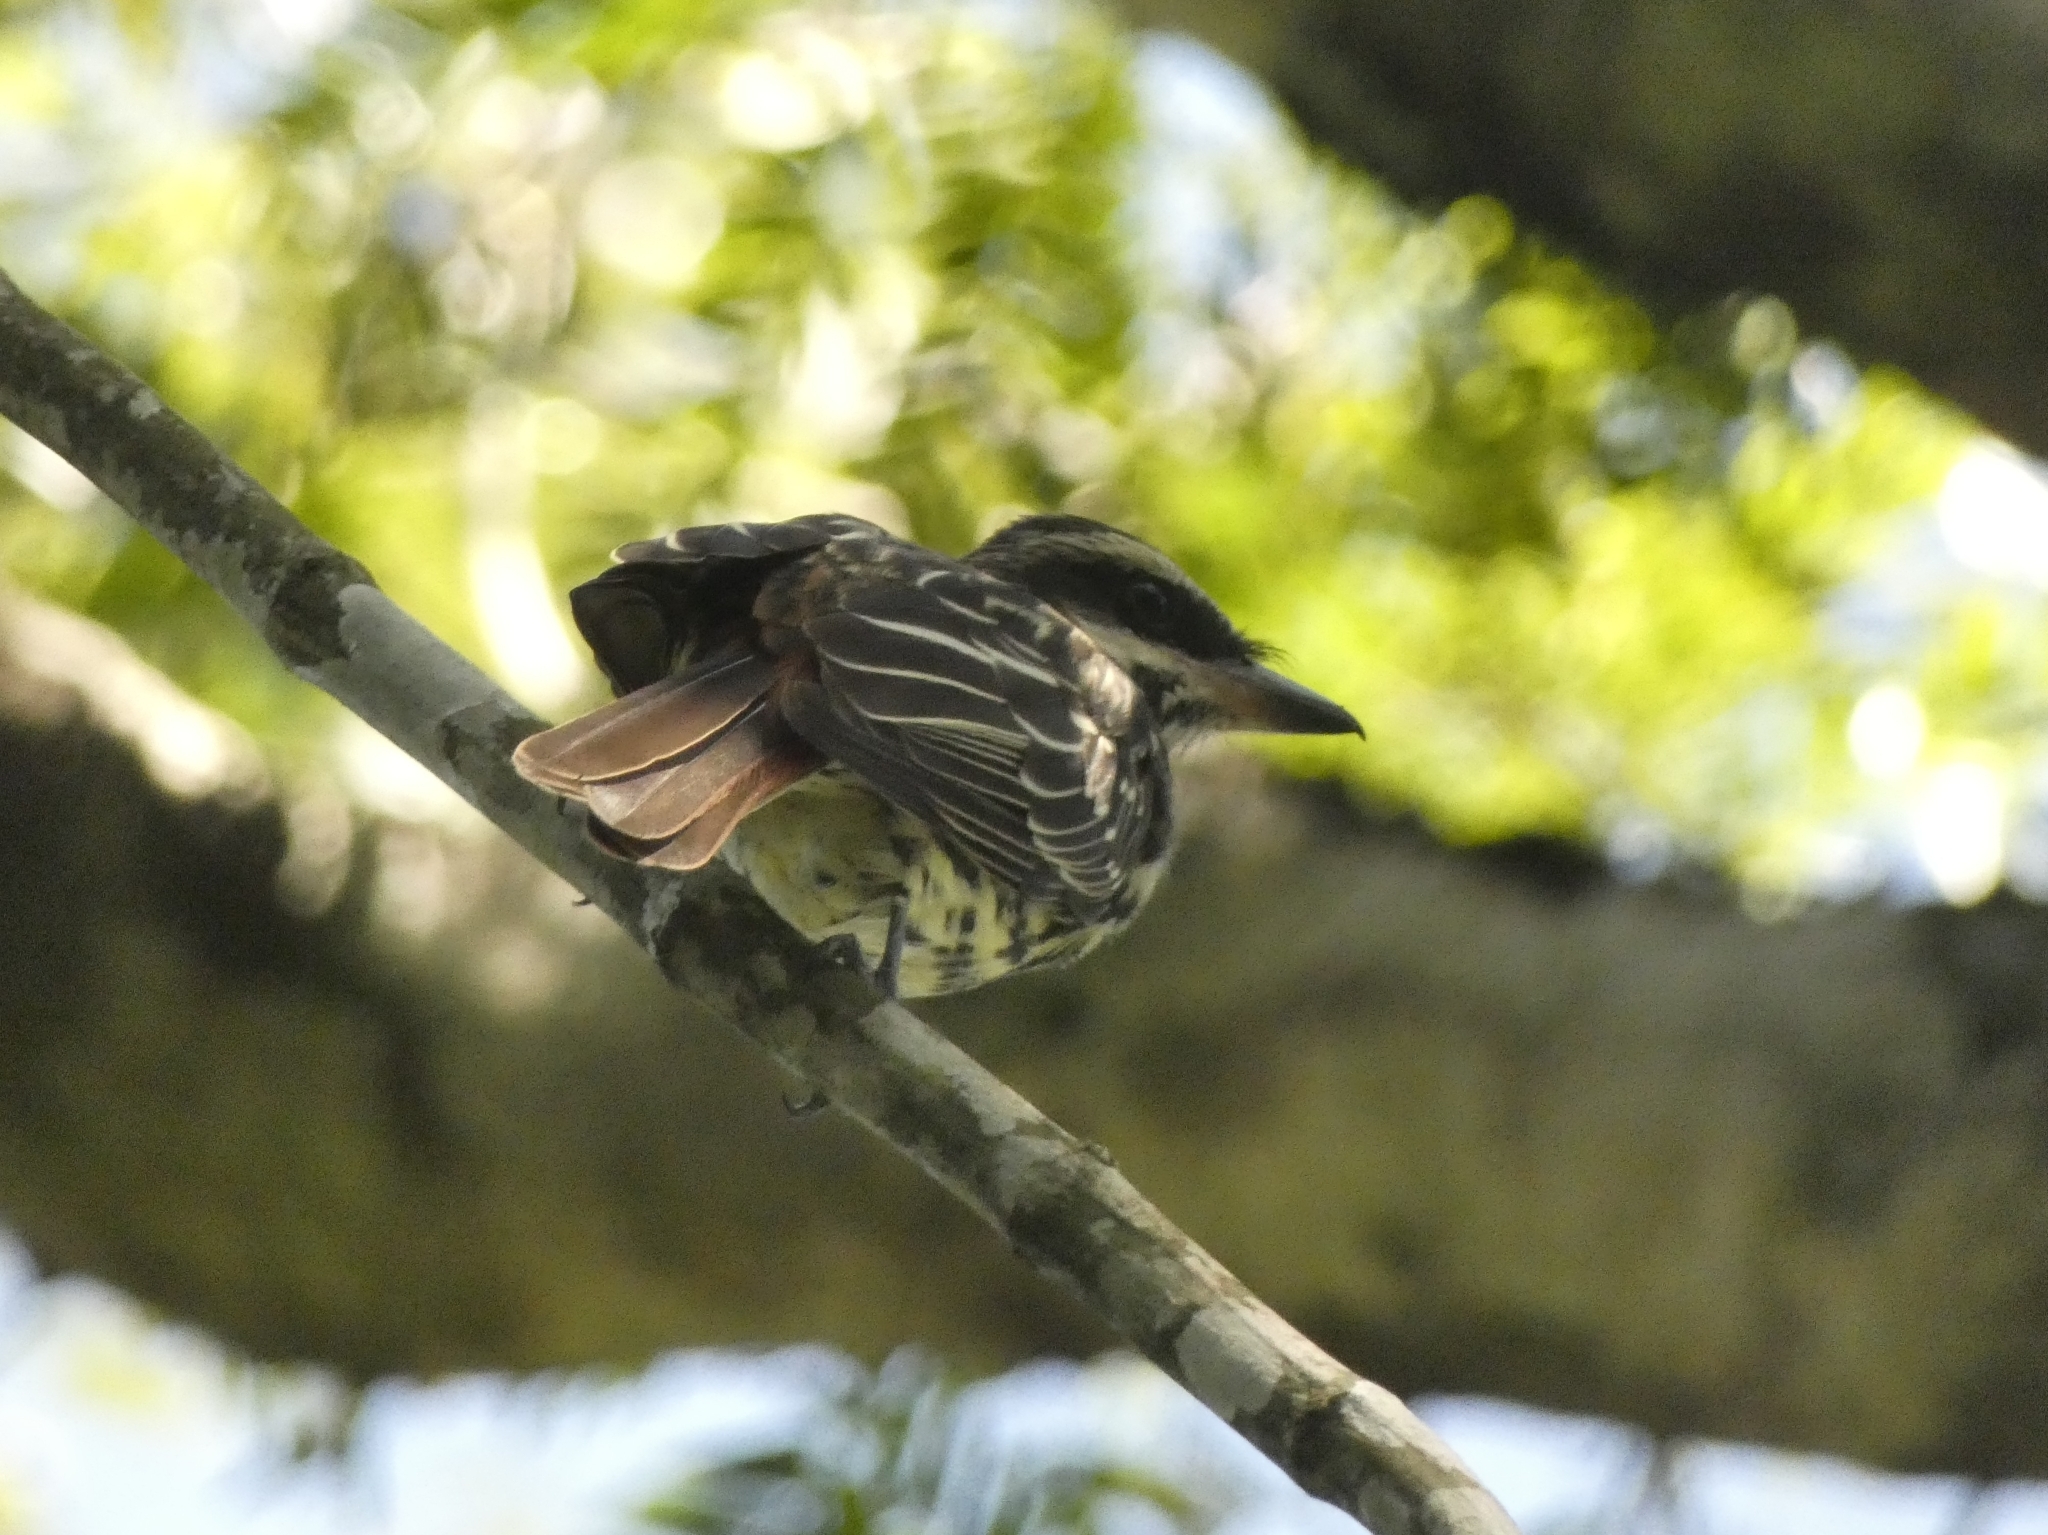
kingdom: Animalia
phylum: Chordata
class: Aves
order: Passeriformes
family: Tyrannidae
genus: Myiodynastes
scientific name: Myiodynastes maculatus
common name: Streaked flycatcher
